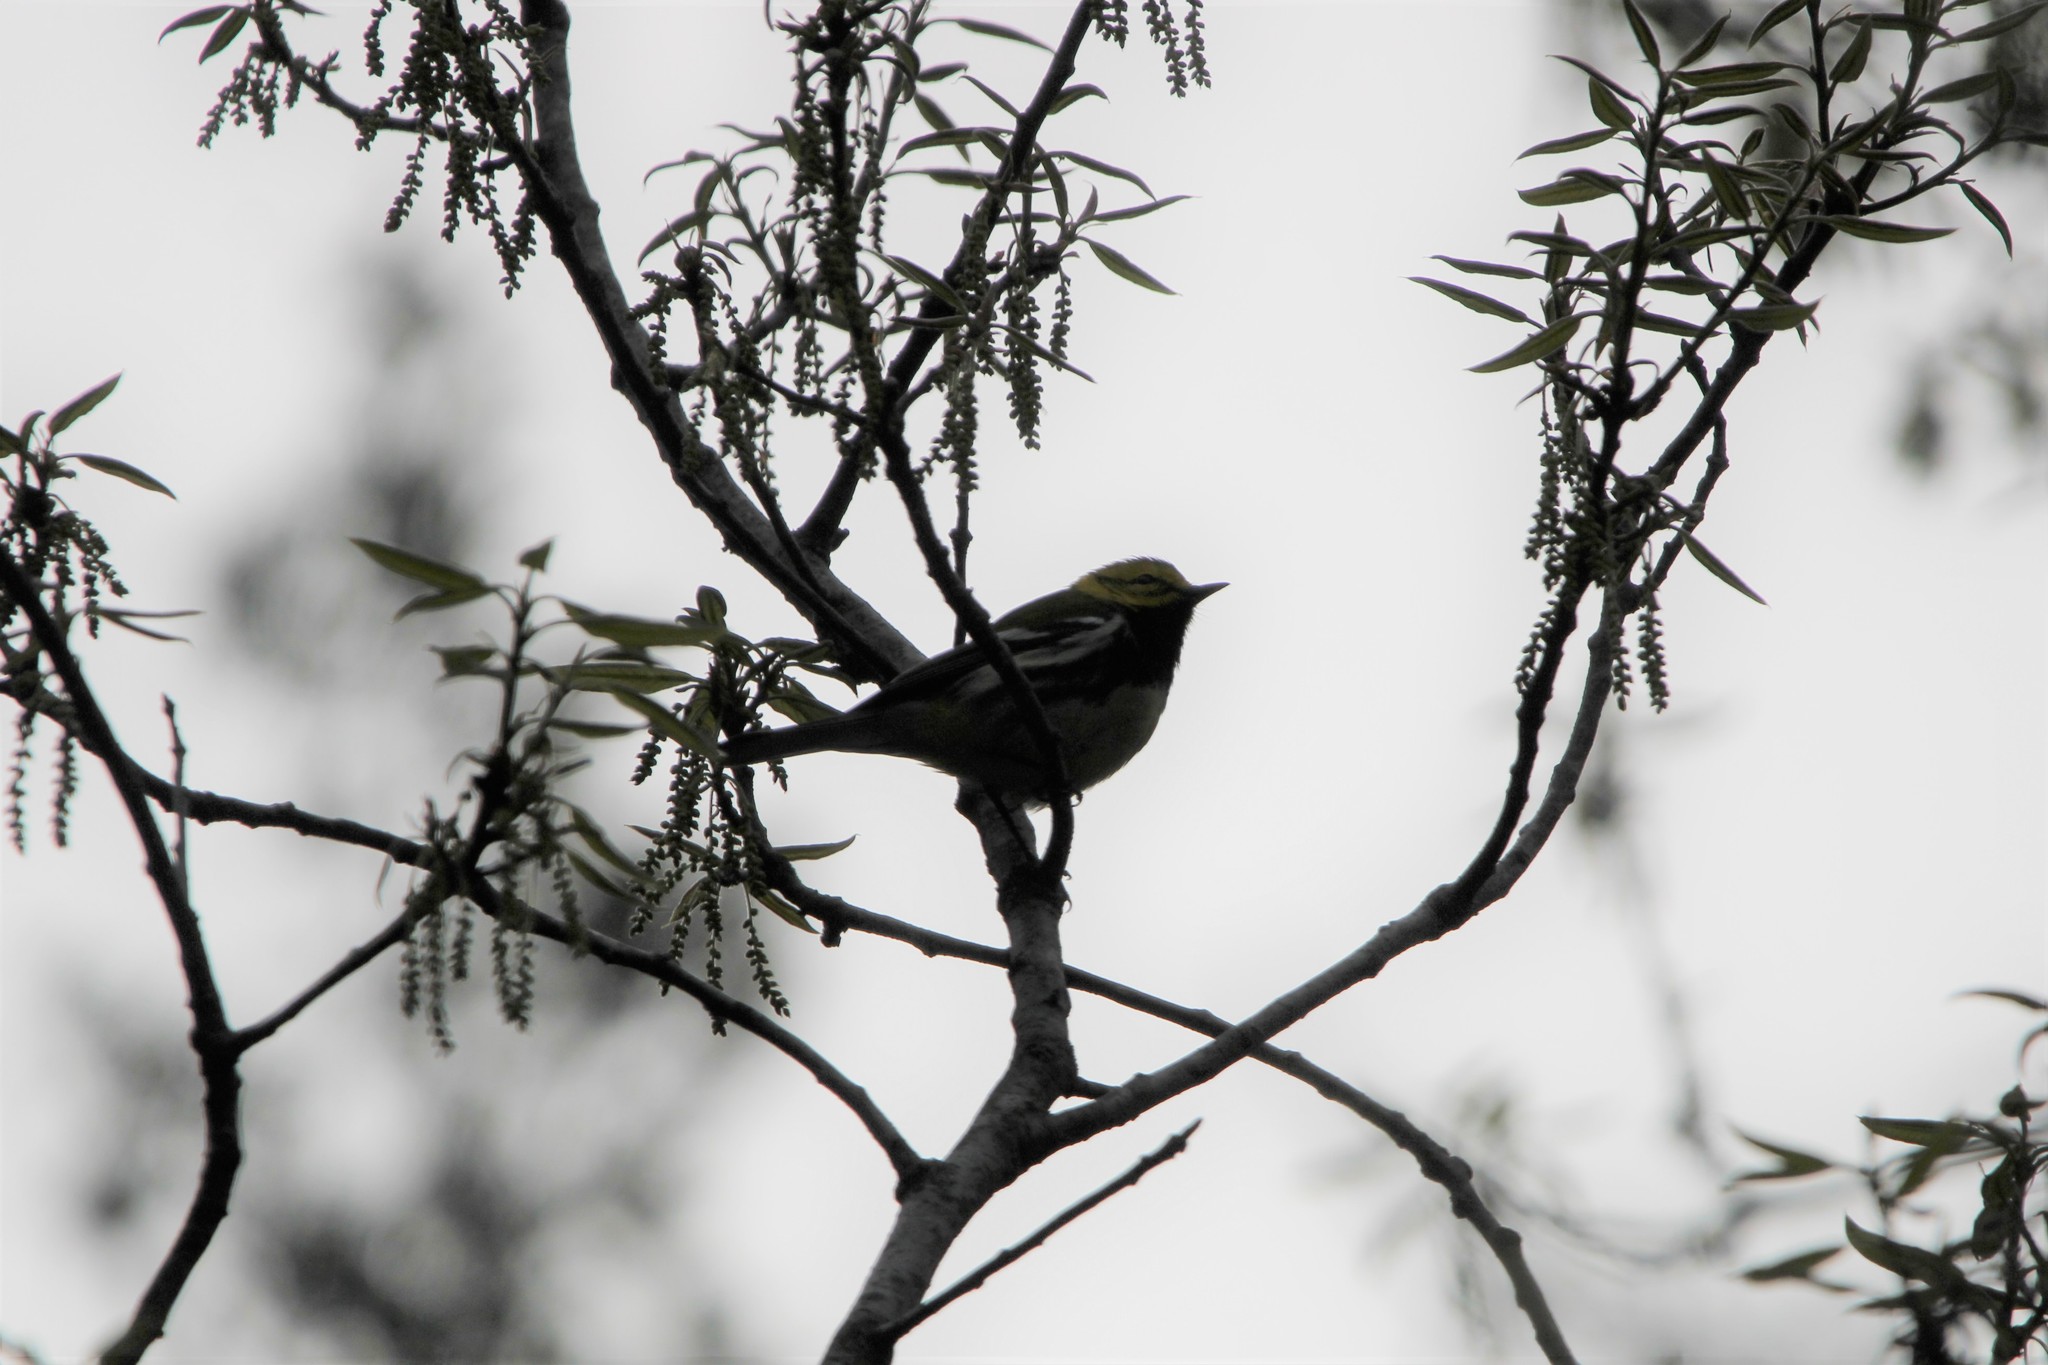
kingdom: Animalia
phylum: Chordata
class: Aves
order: Passeriformes
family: Parulidae
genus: Setophaga
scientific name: Setophaga virens
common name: Black-throated green warbler
